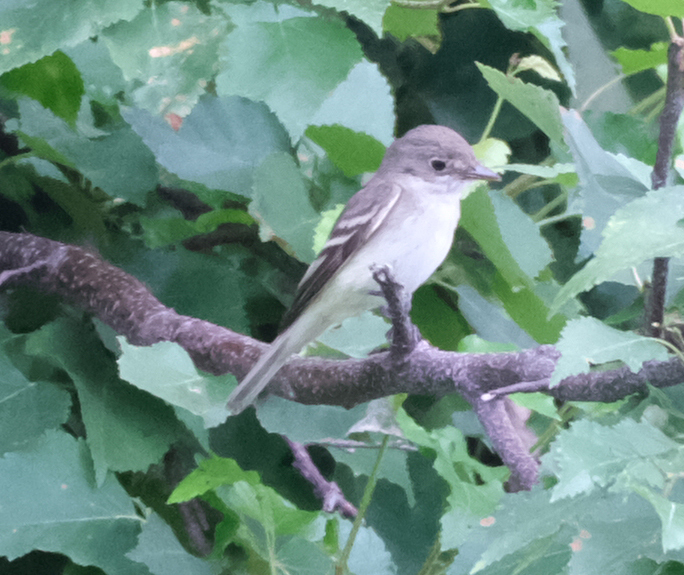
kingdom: Animalia
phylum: Chordata
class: Aves
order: Passeriformes
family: Tyrannidae
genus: Empidonax
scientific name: Empidonax alnorum
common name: Alder flycatcher
